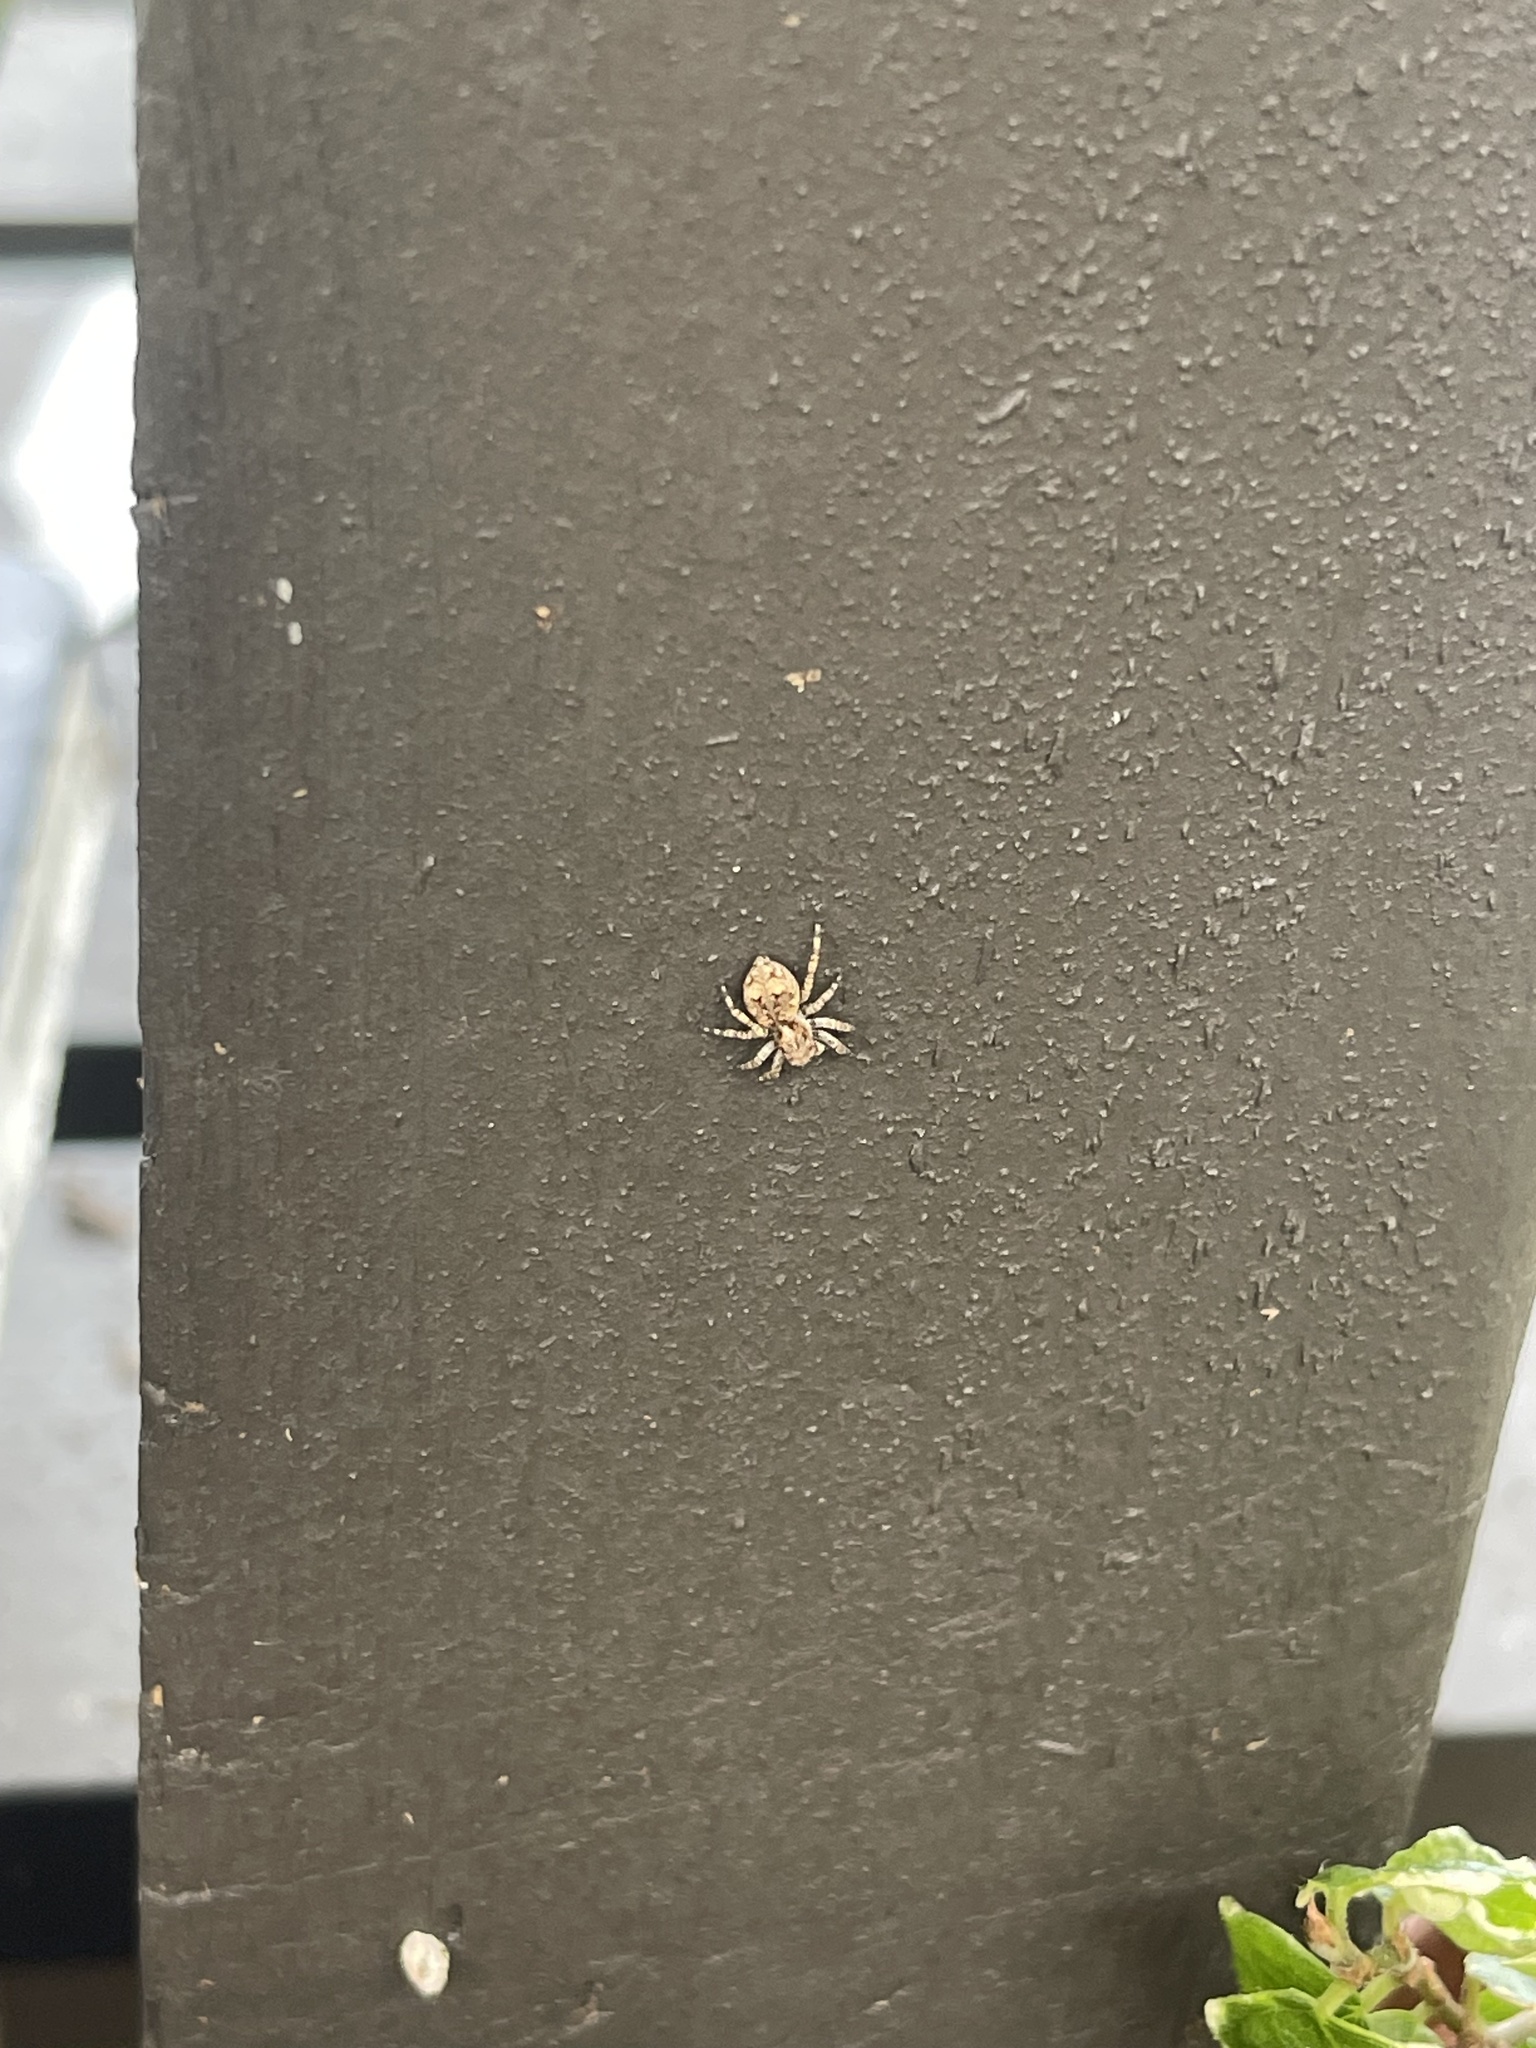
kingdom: Animalia
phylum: Arthropoda
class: Arachnida
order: Araneae
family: Salticidae
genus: Attulus
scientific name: Attulus fasciger
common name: Asiatic wall jumping spider
